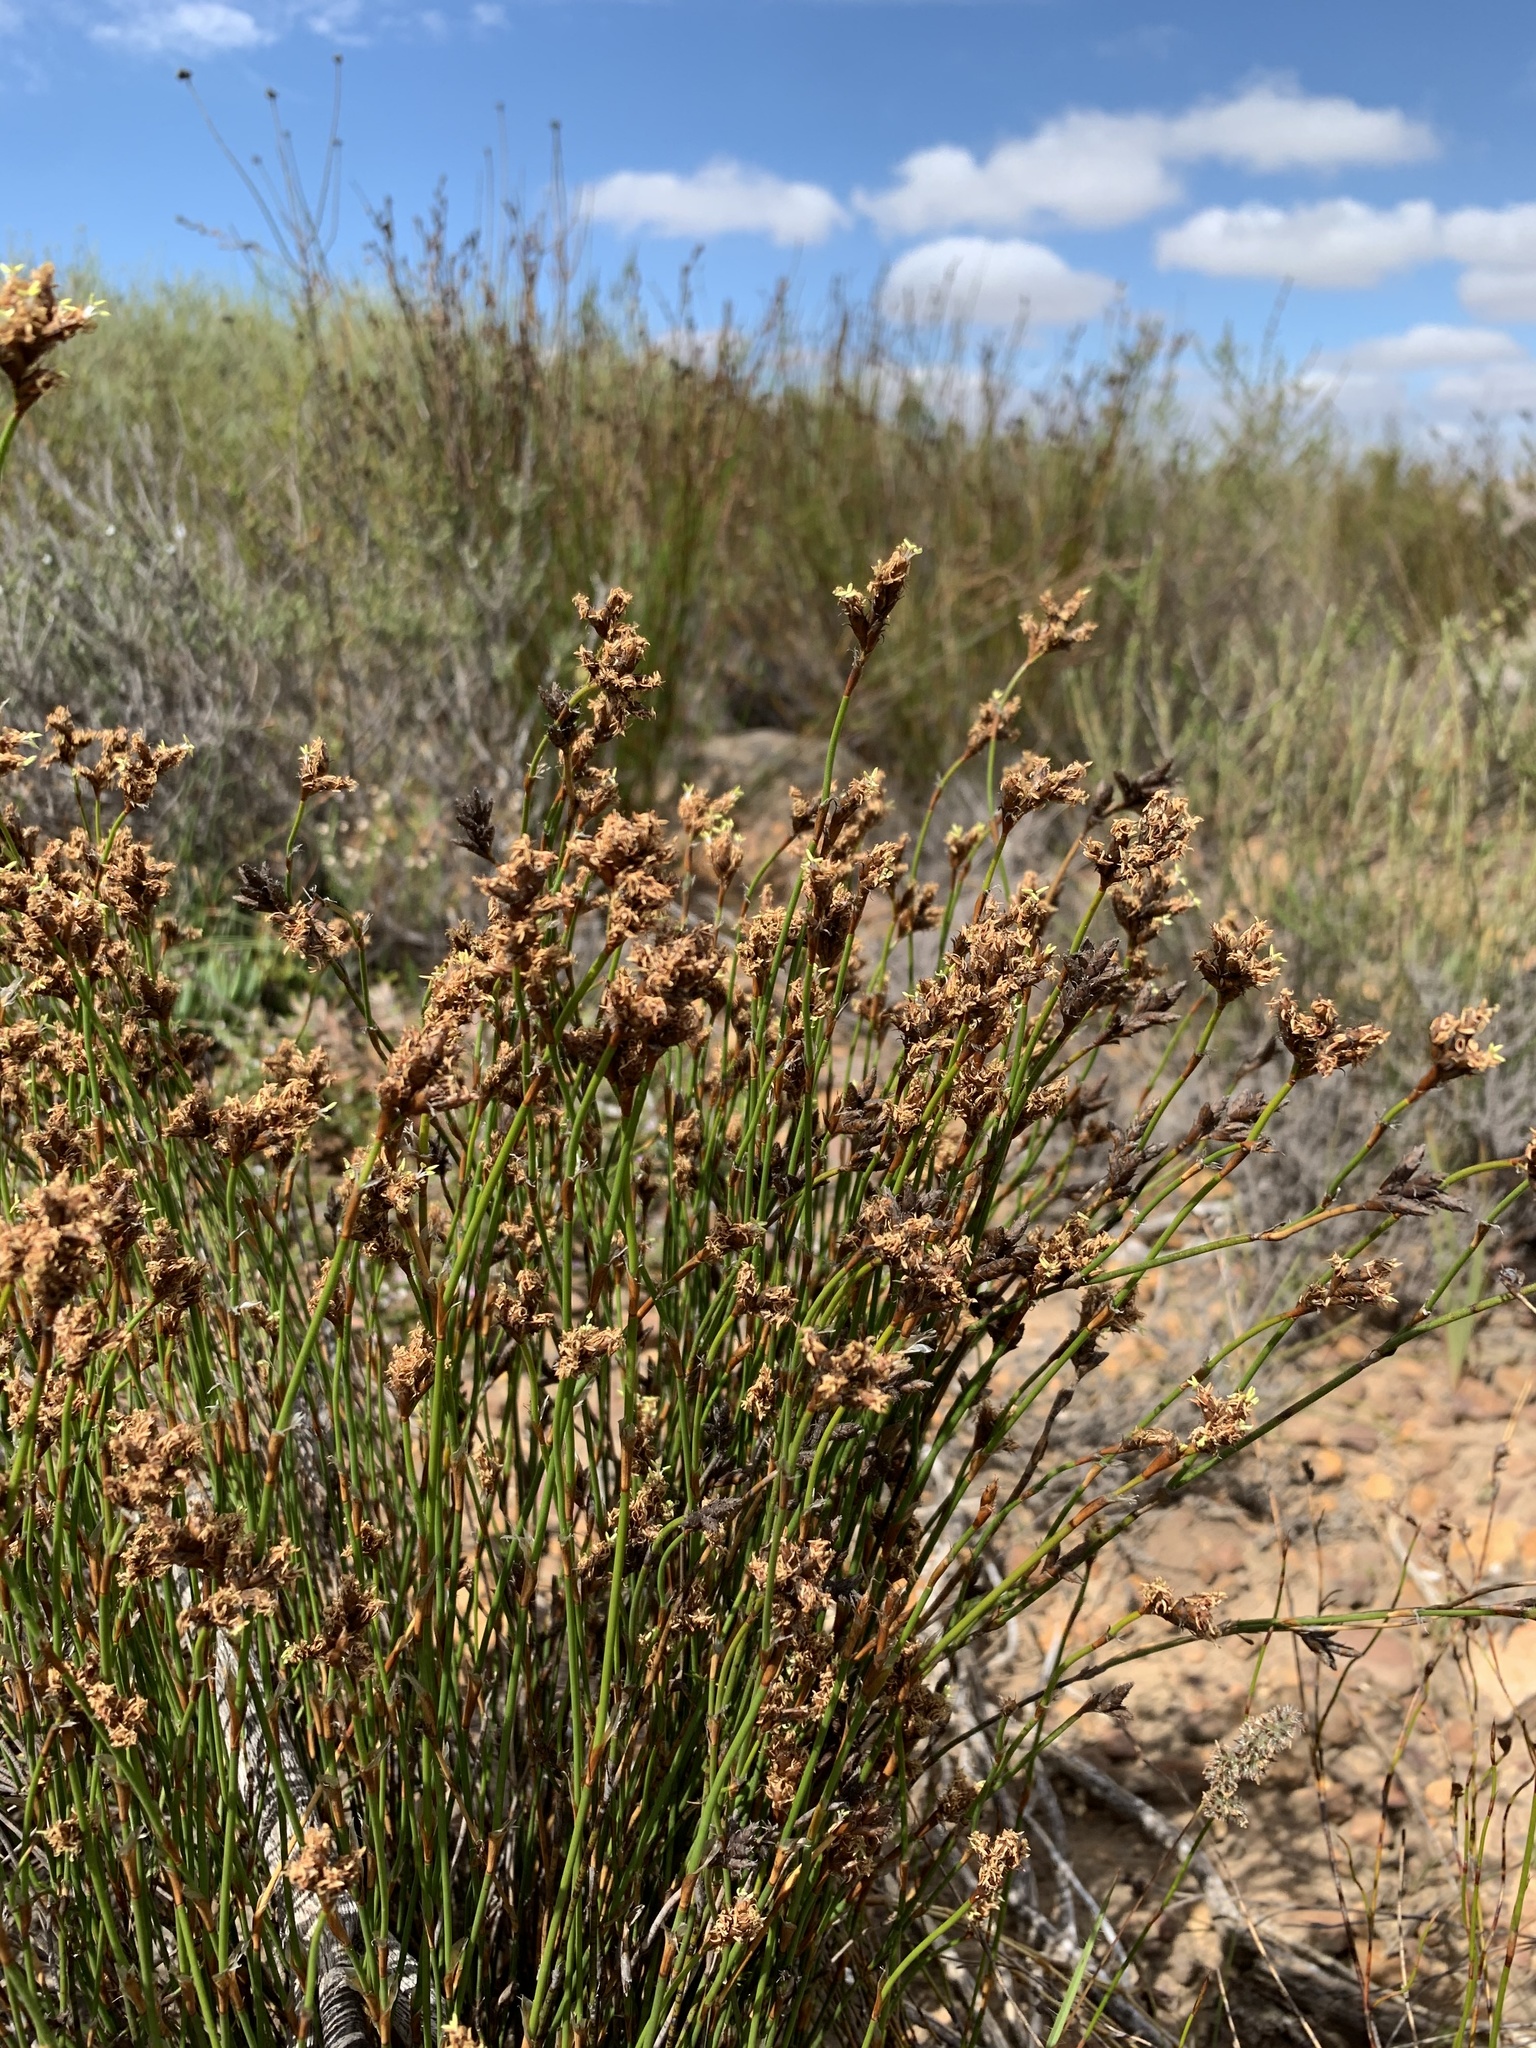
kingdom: Plantae
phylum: Tracheophyta
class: Liliopsida
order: Poales
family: Restionaceae
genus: Restio
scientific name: Restio capensis
